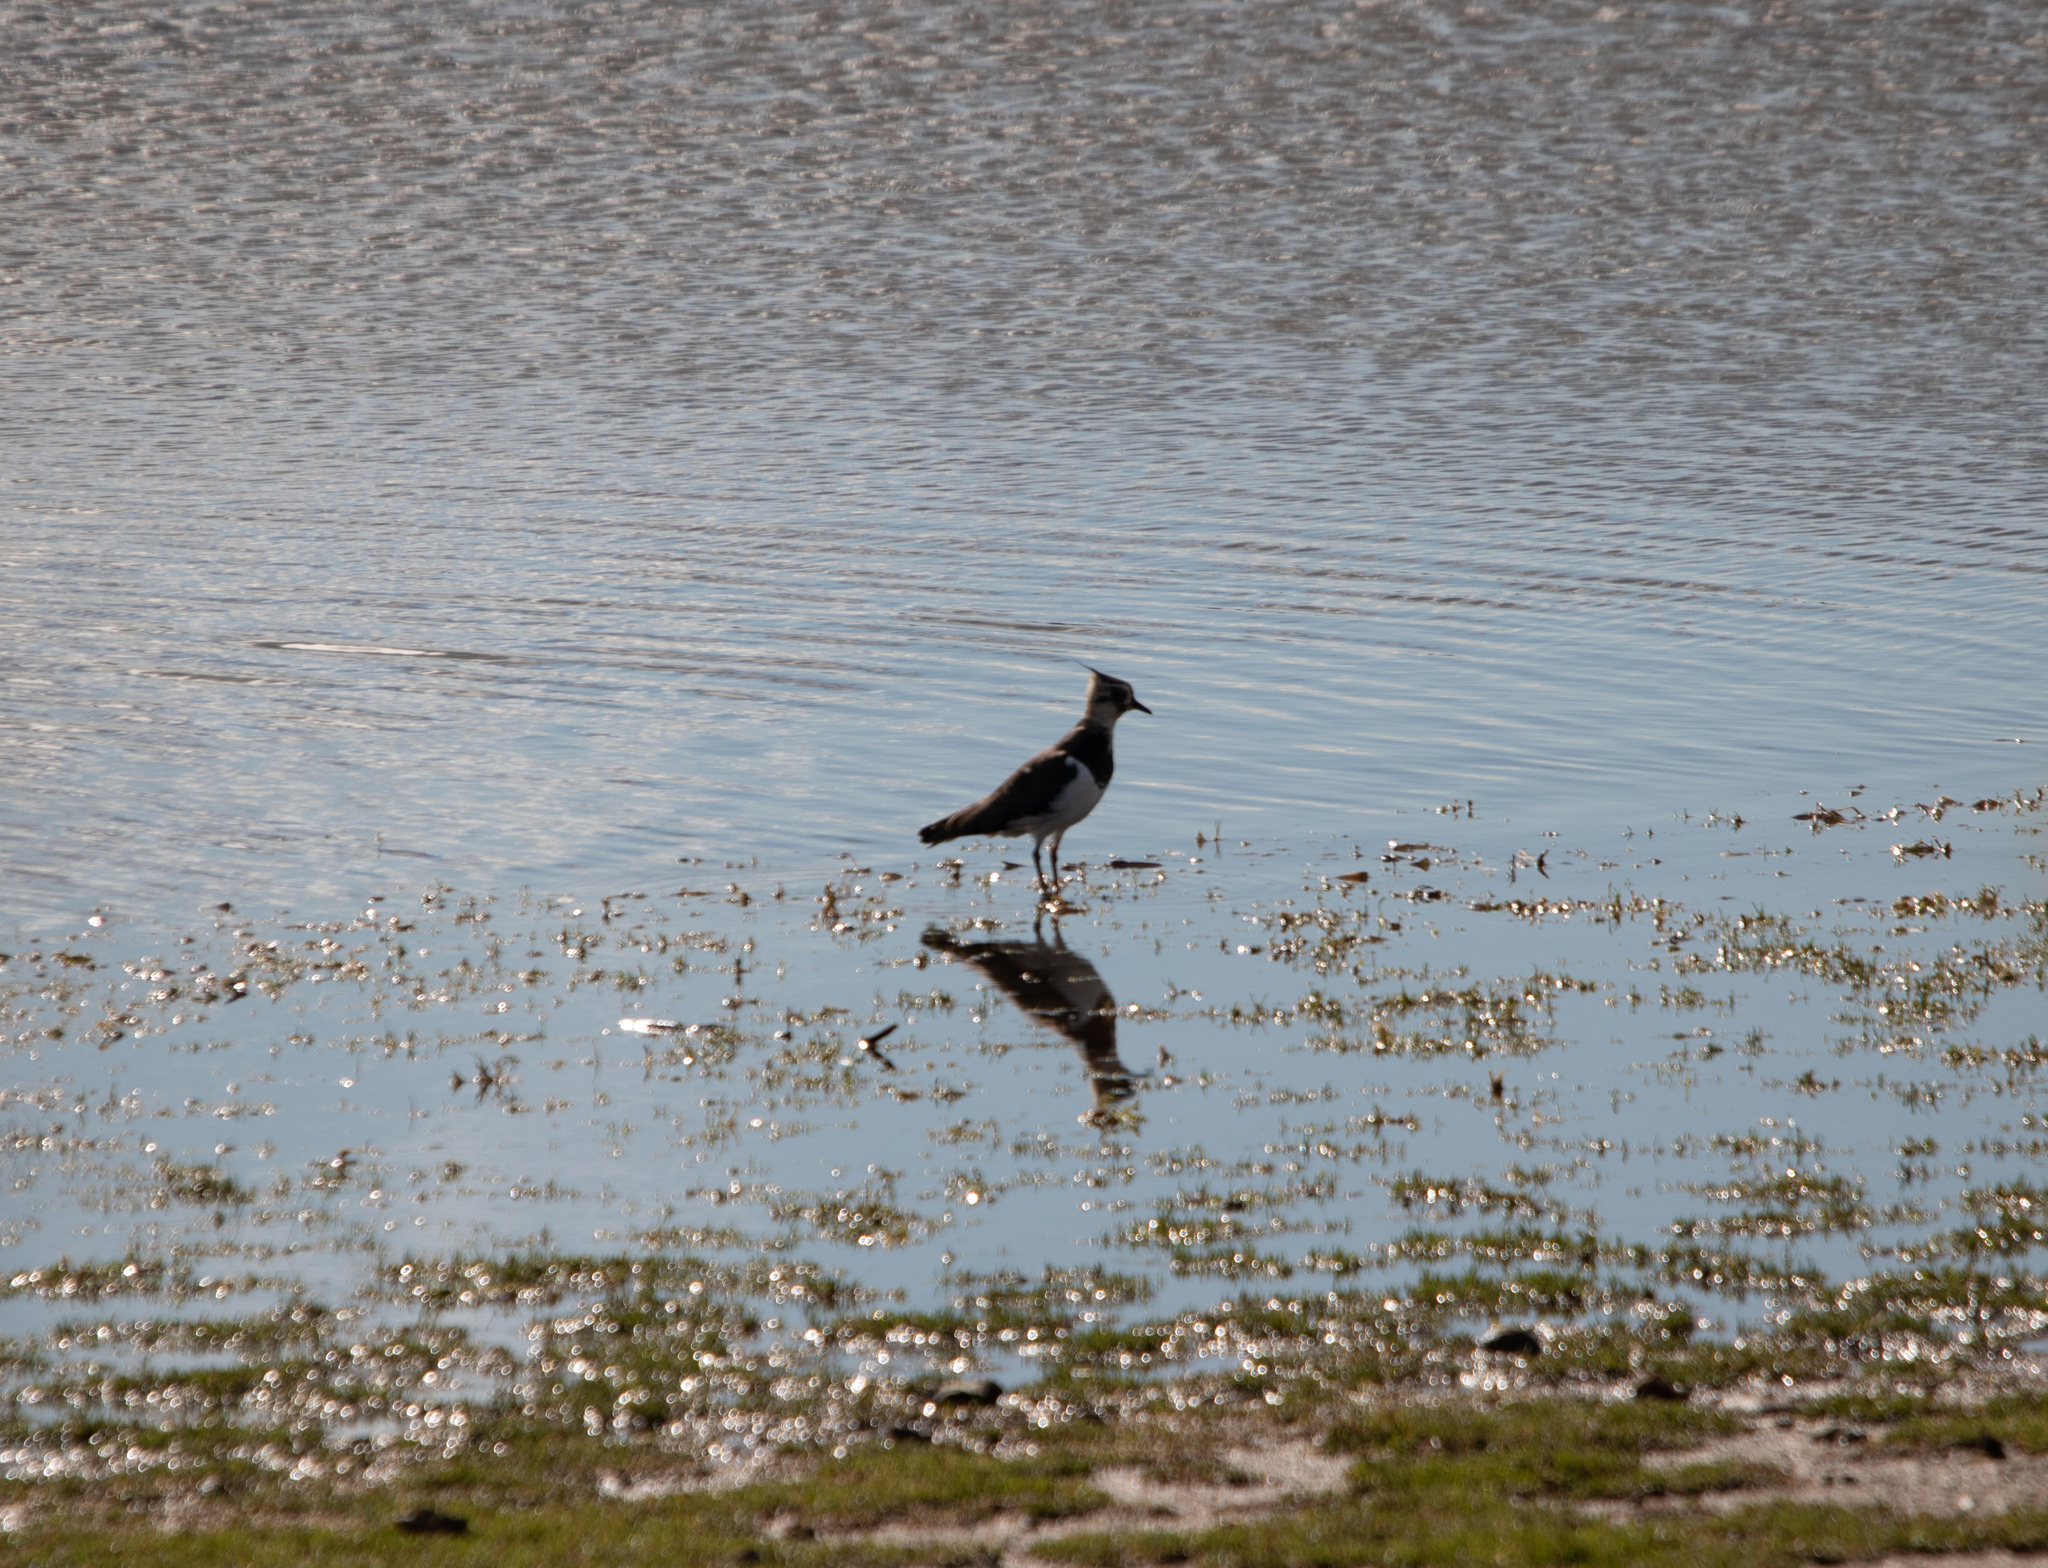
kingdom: Animalia
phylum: Chordata
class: Aves
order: Charadriiformes
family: Charadriidae
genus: Vanellus
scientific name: Vanellus vanellus
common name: Northern lapwing
